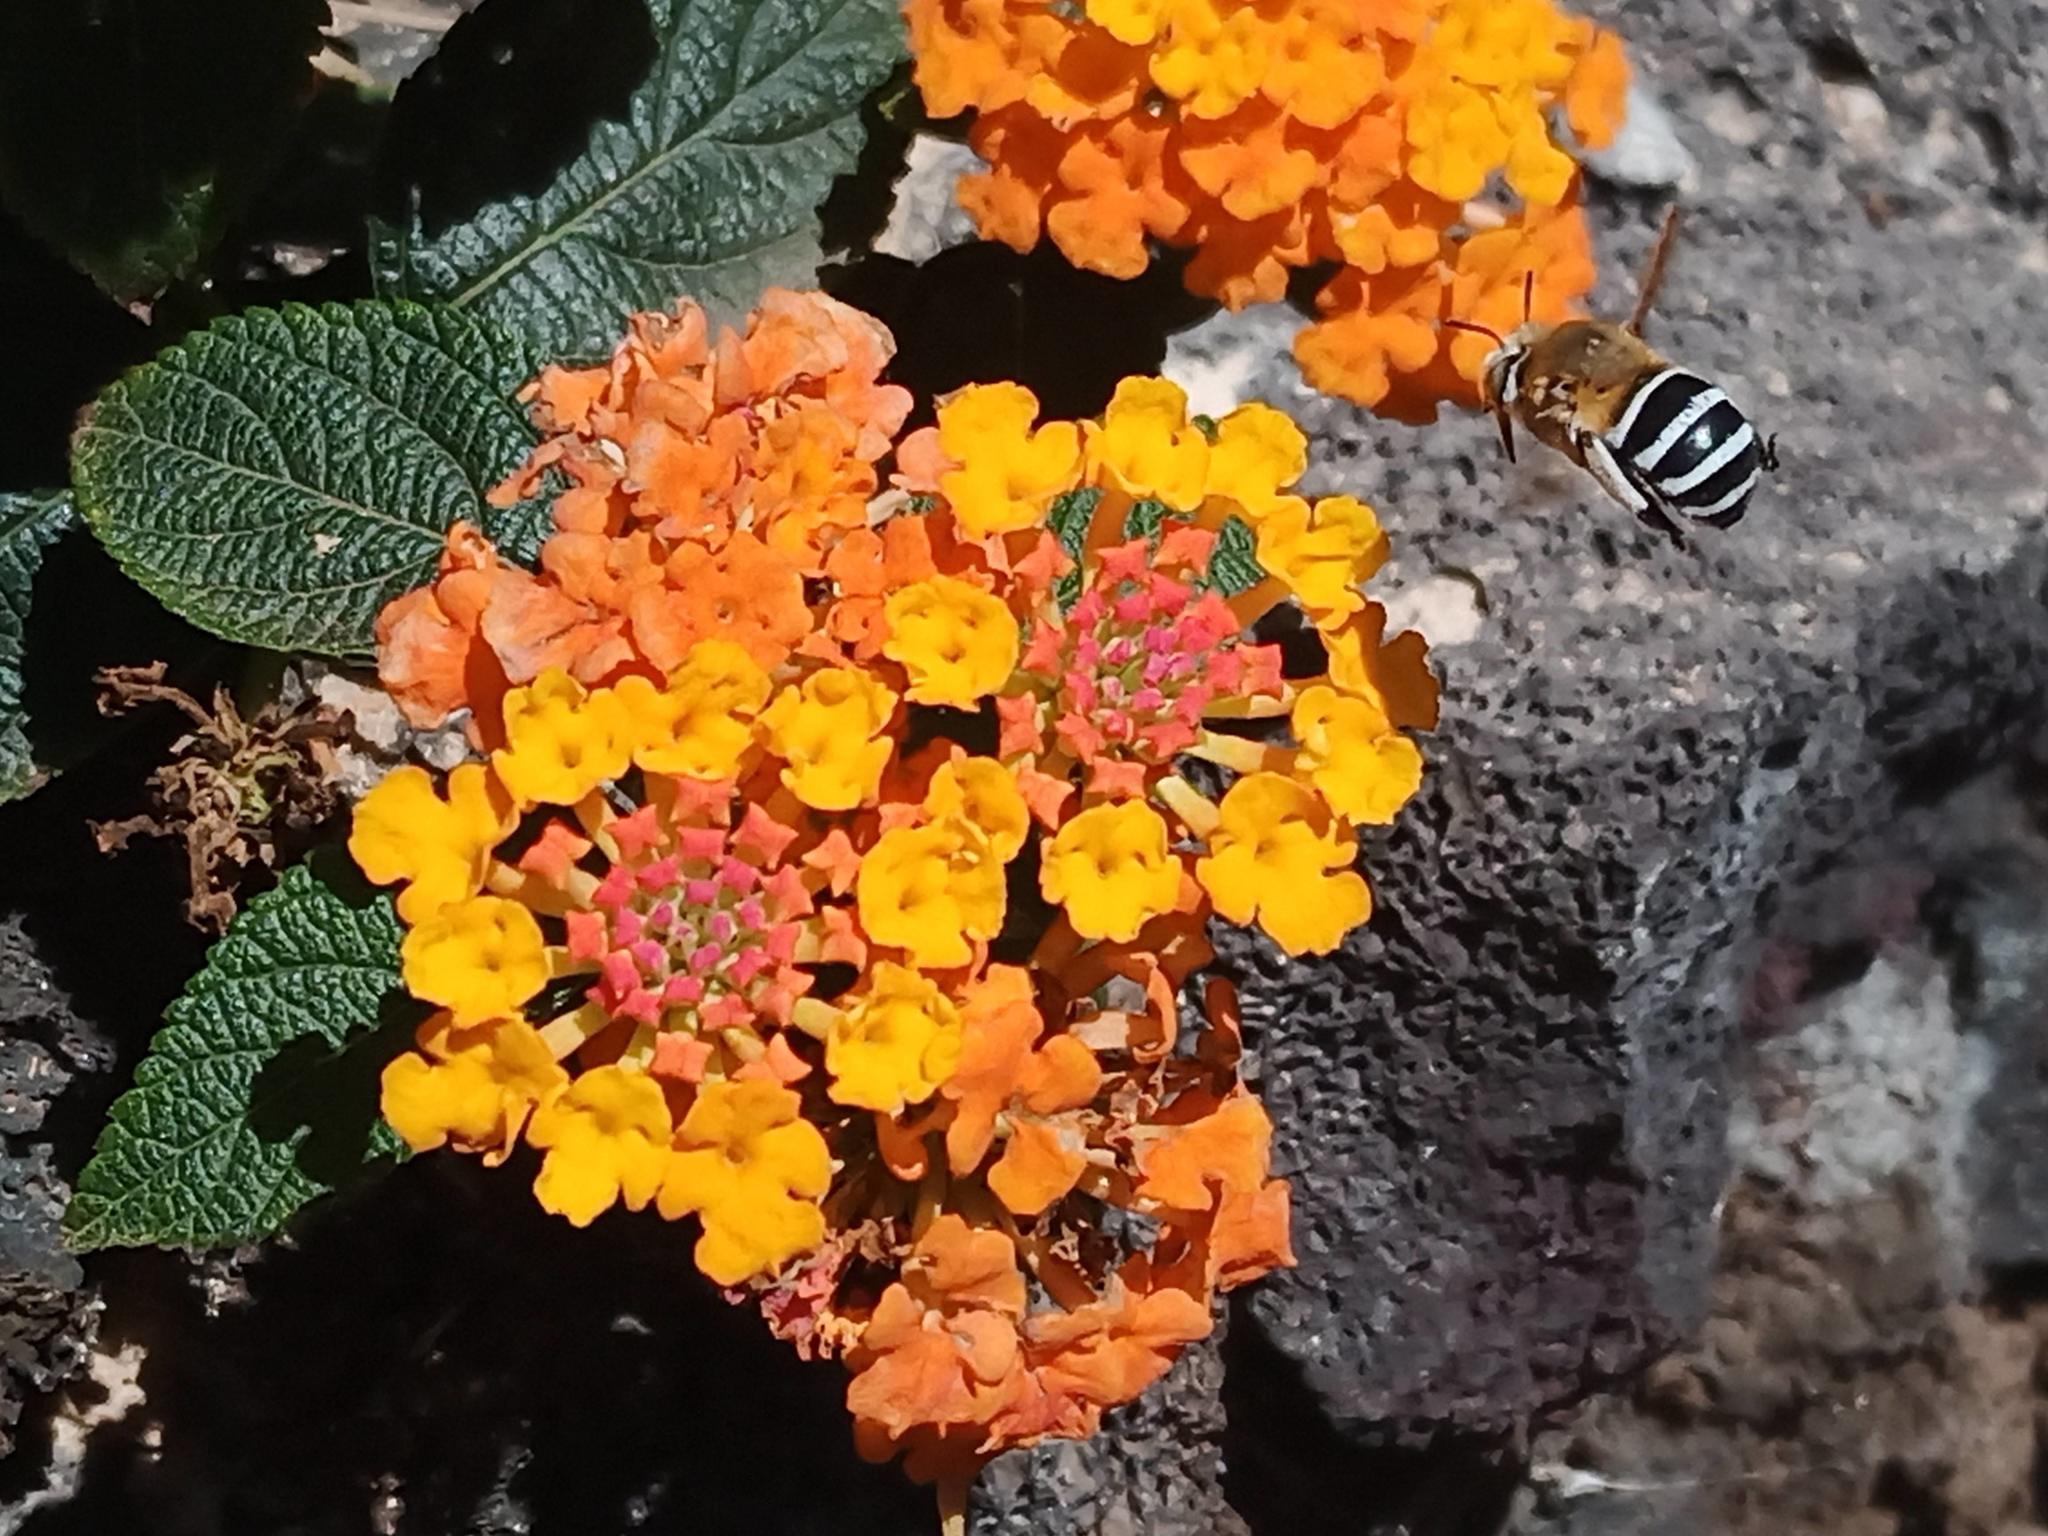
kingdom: Animalia
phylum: Arthropoda
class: Insecta
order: Hymenoptera
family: Apidae
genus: Amegilla
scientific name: Amegilla quadrifasciata
